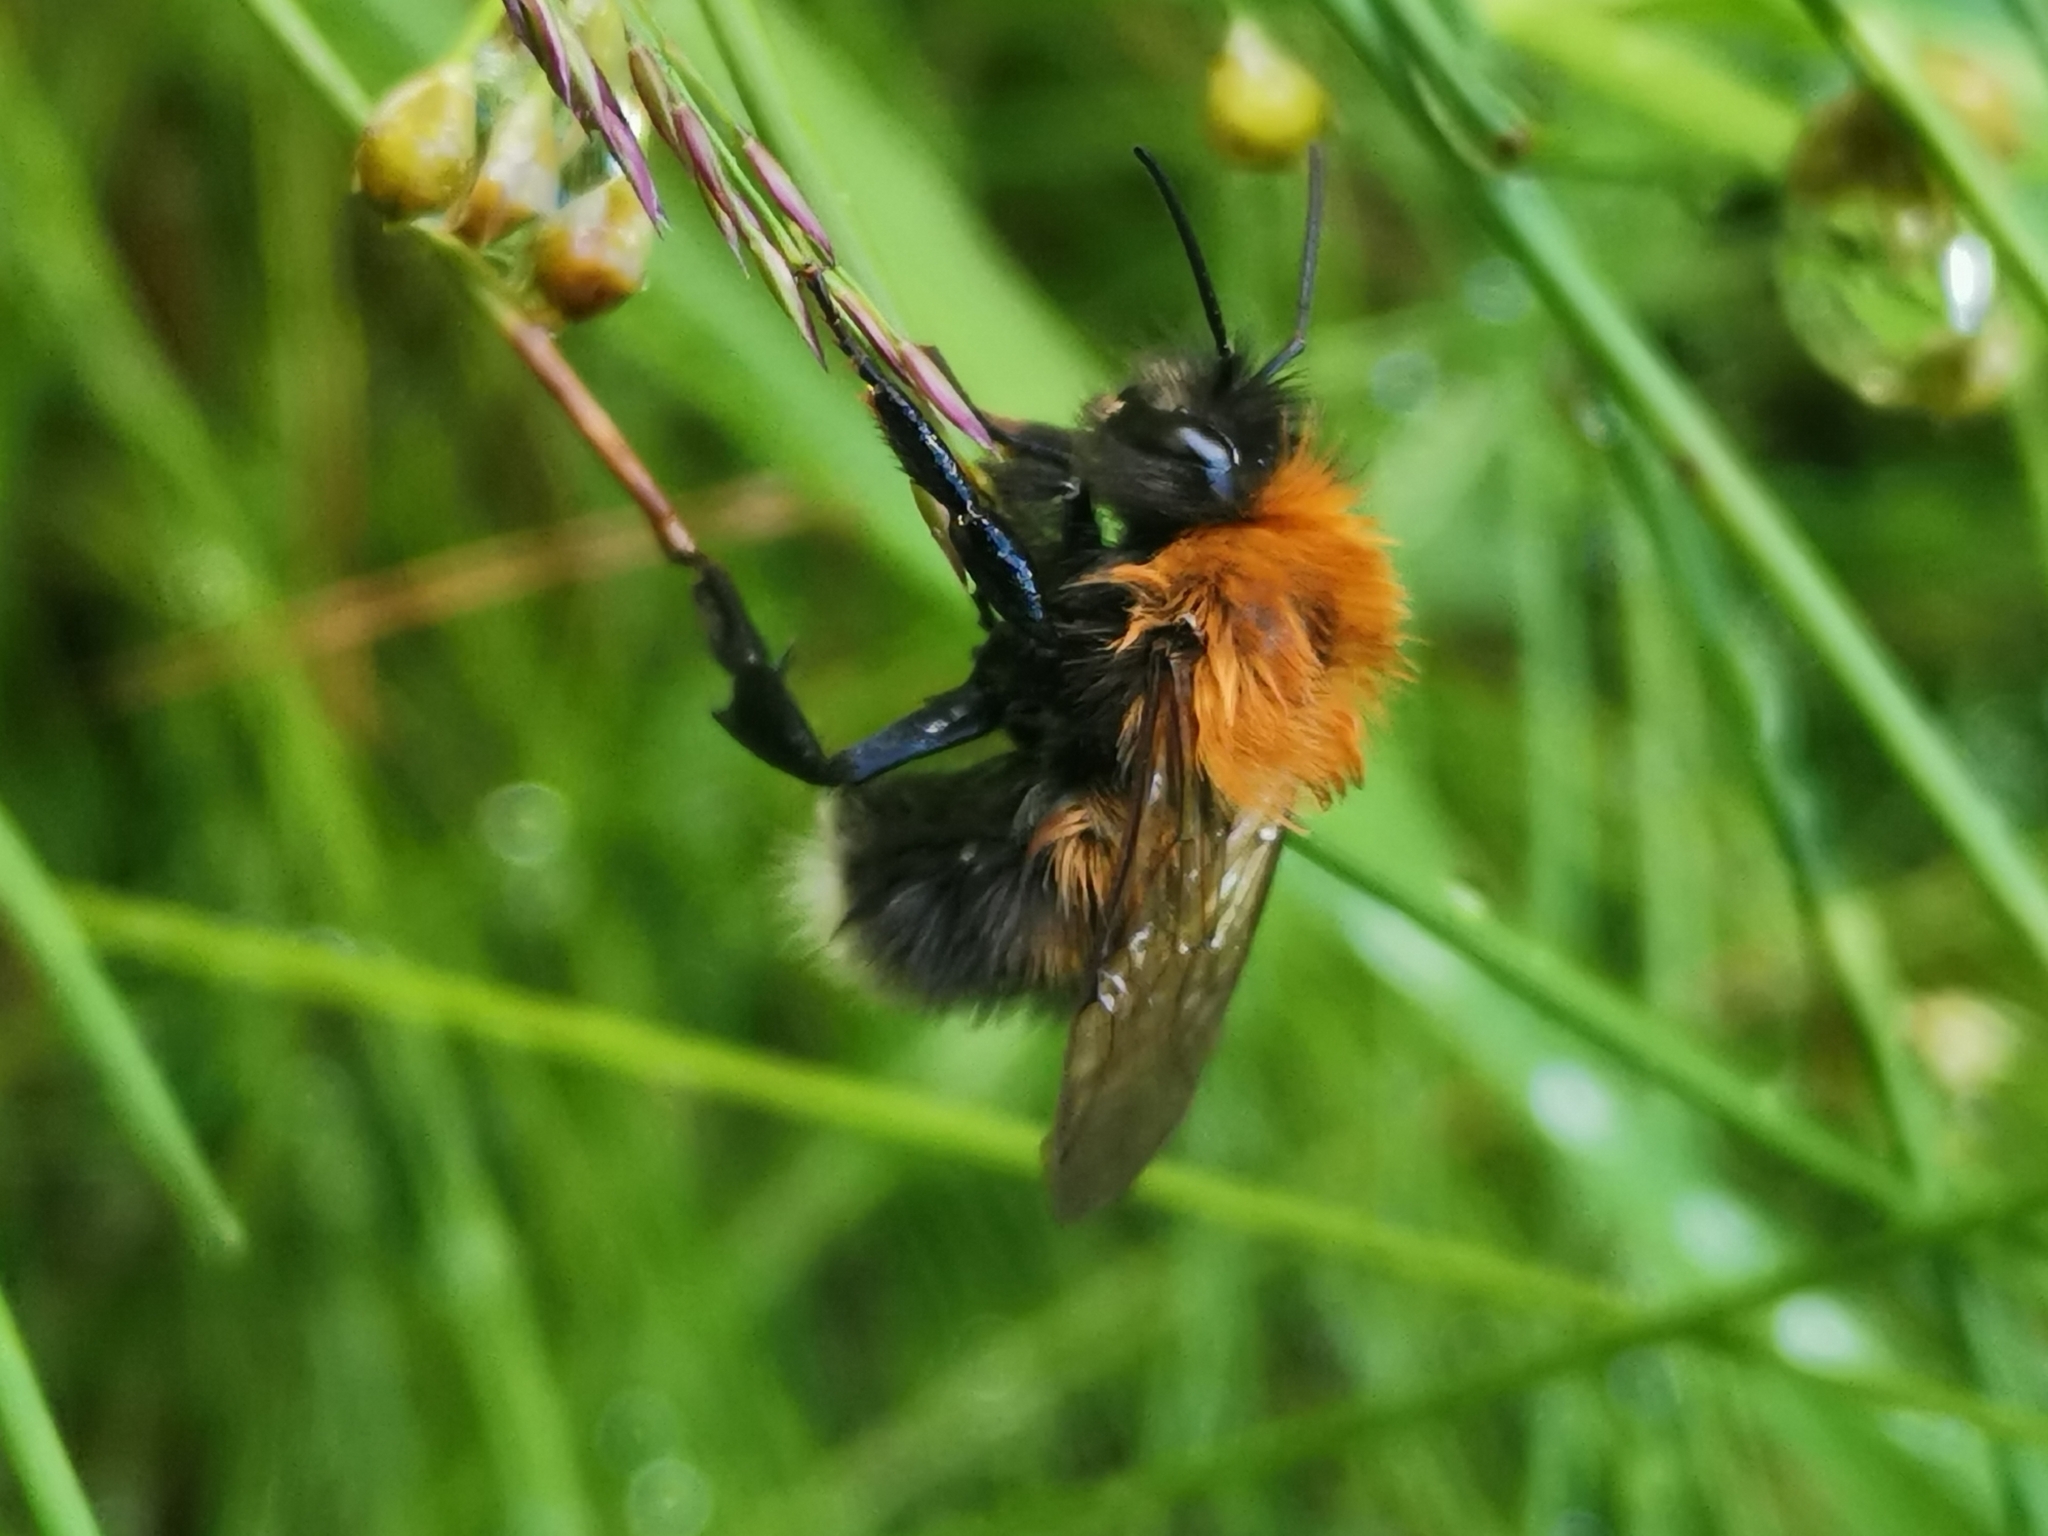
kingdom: Animalia
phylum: Arthropoda
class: Insecta
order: Hymenoptera
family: Apidae
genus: Bombus
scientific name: Bombus hypnorum
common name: New garden bumblebee
